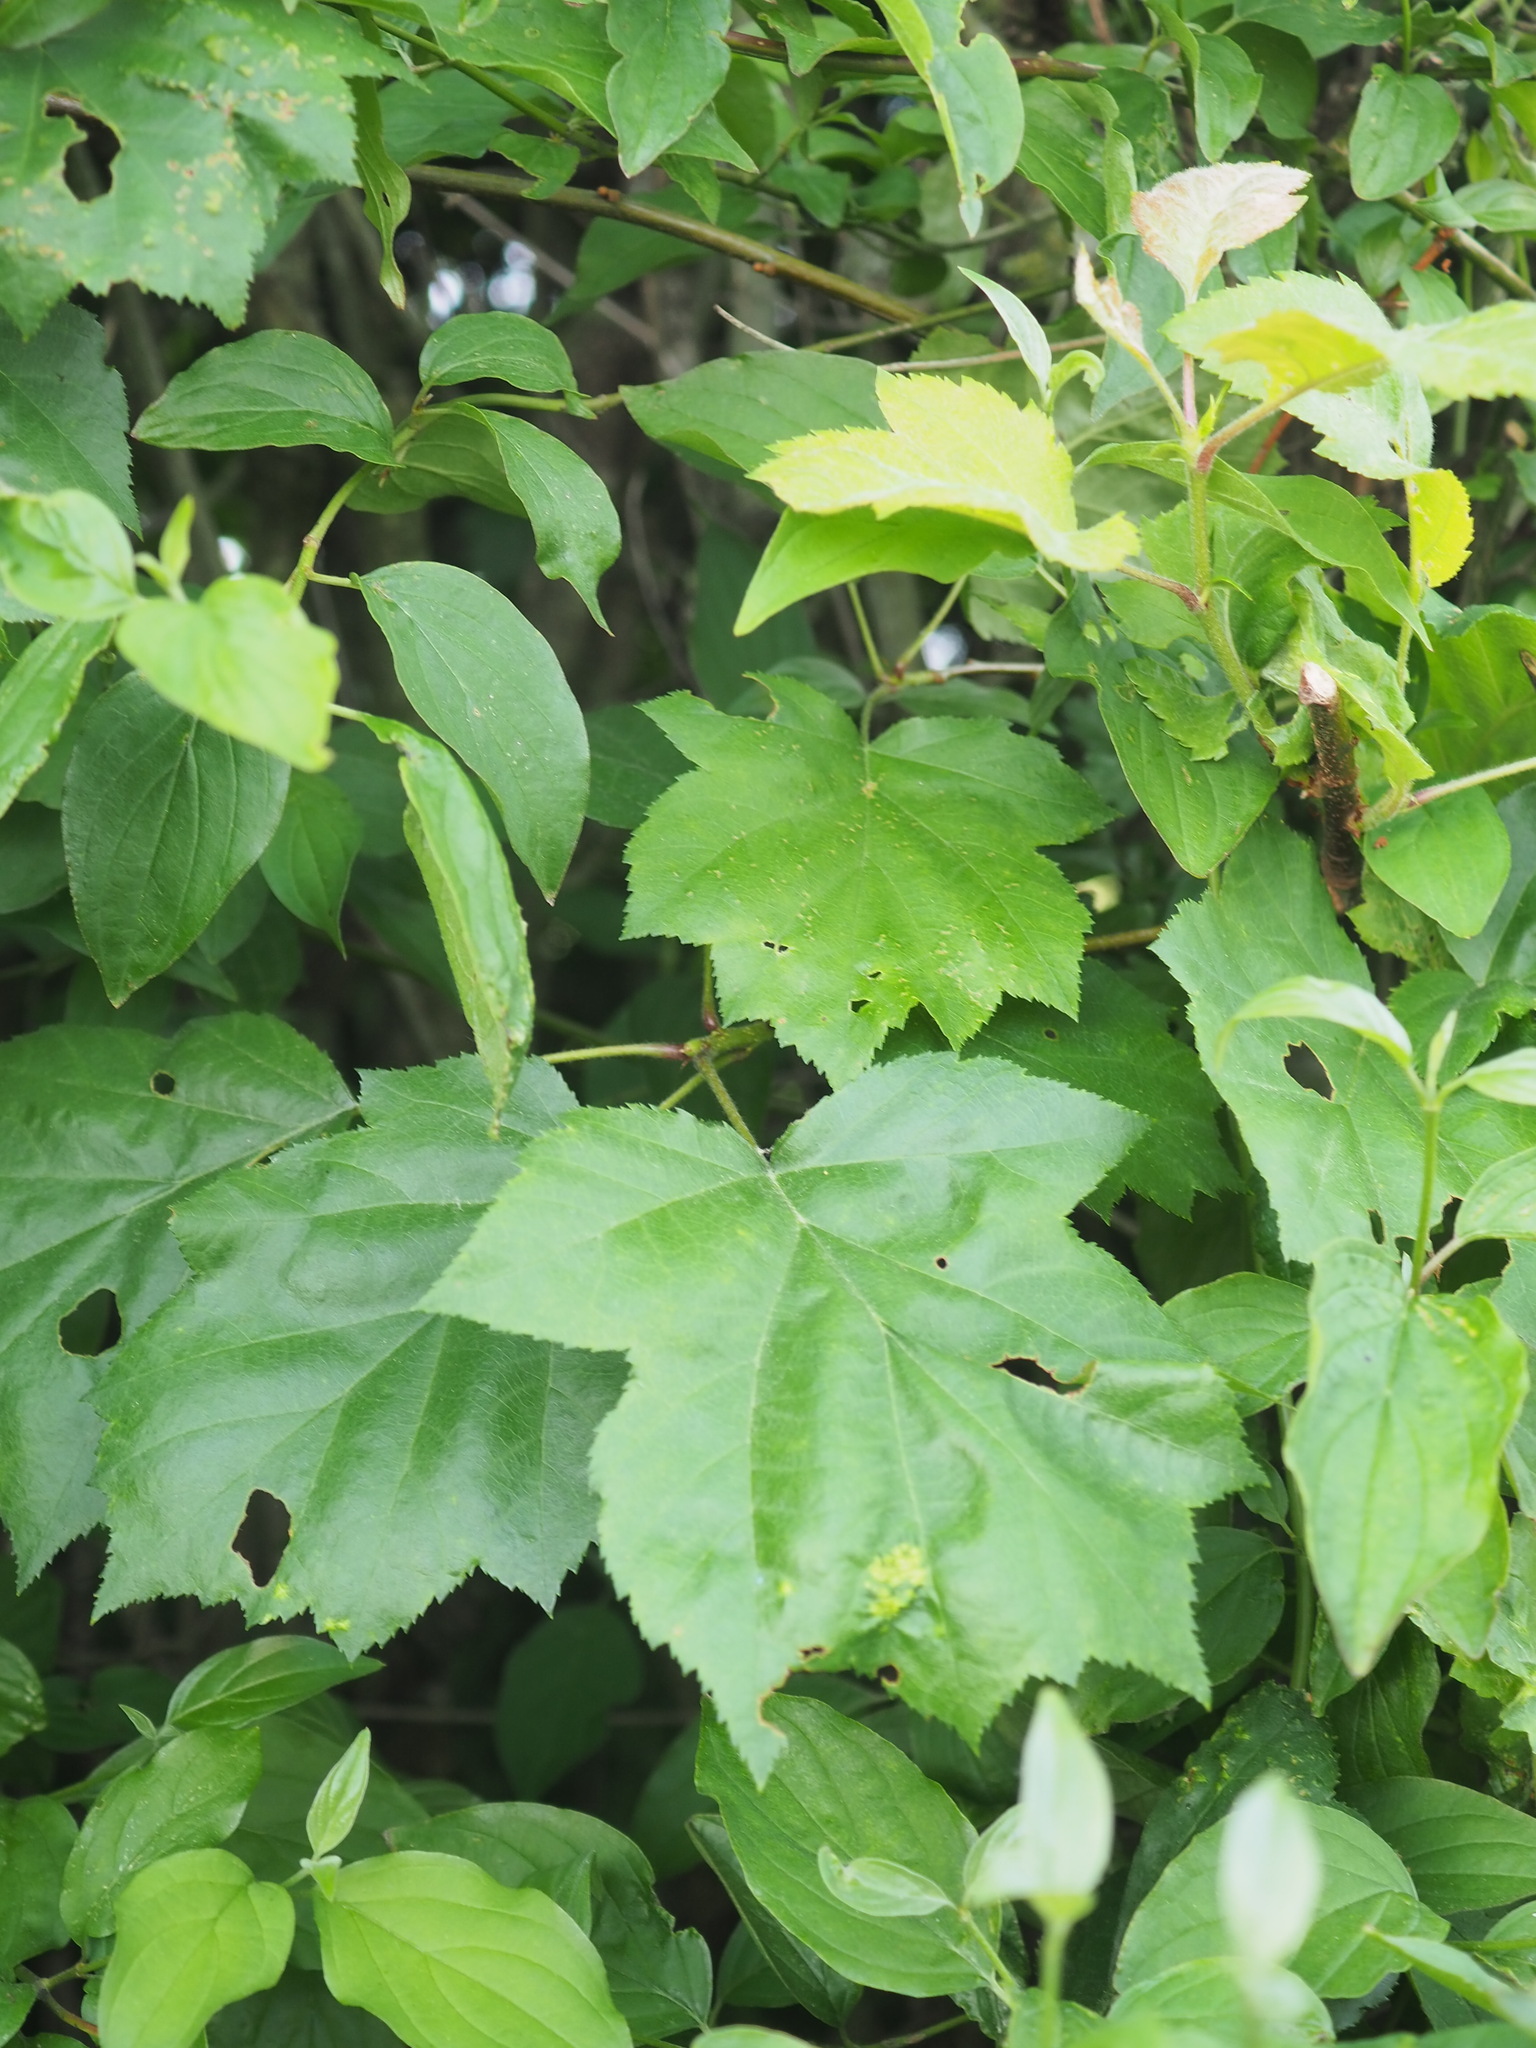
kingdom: Plantae
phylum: Tracheophyta
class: Magnoliopsida
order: Rosales
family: Rosaceae
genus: Torminalis
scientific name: Torminalis glaberrima
